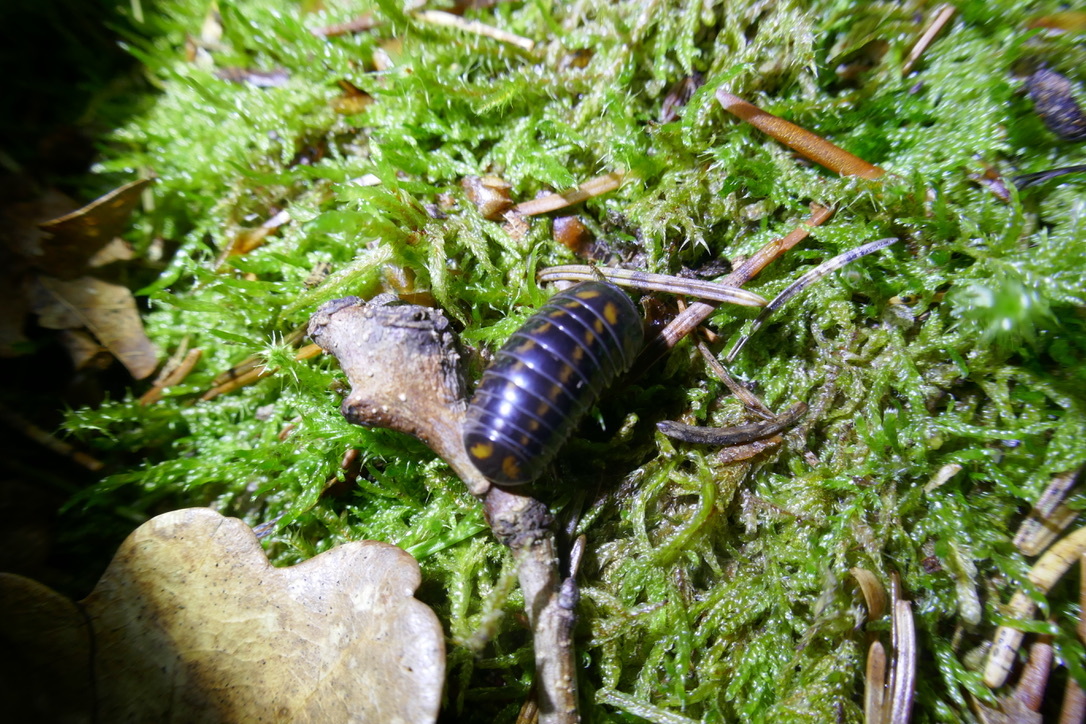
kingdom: Animalia
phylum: Arthropoda
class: Diplopoda
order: Glomerida
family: Glomeridae
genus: Glomeris
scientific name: Glomeris tetrasticha
